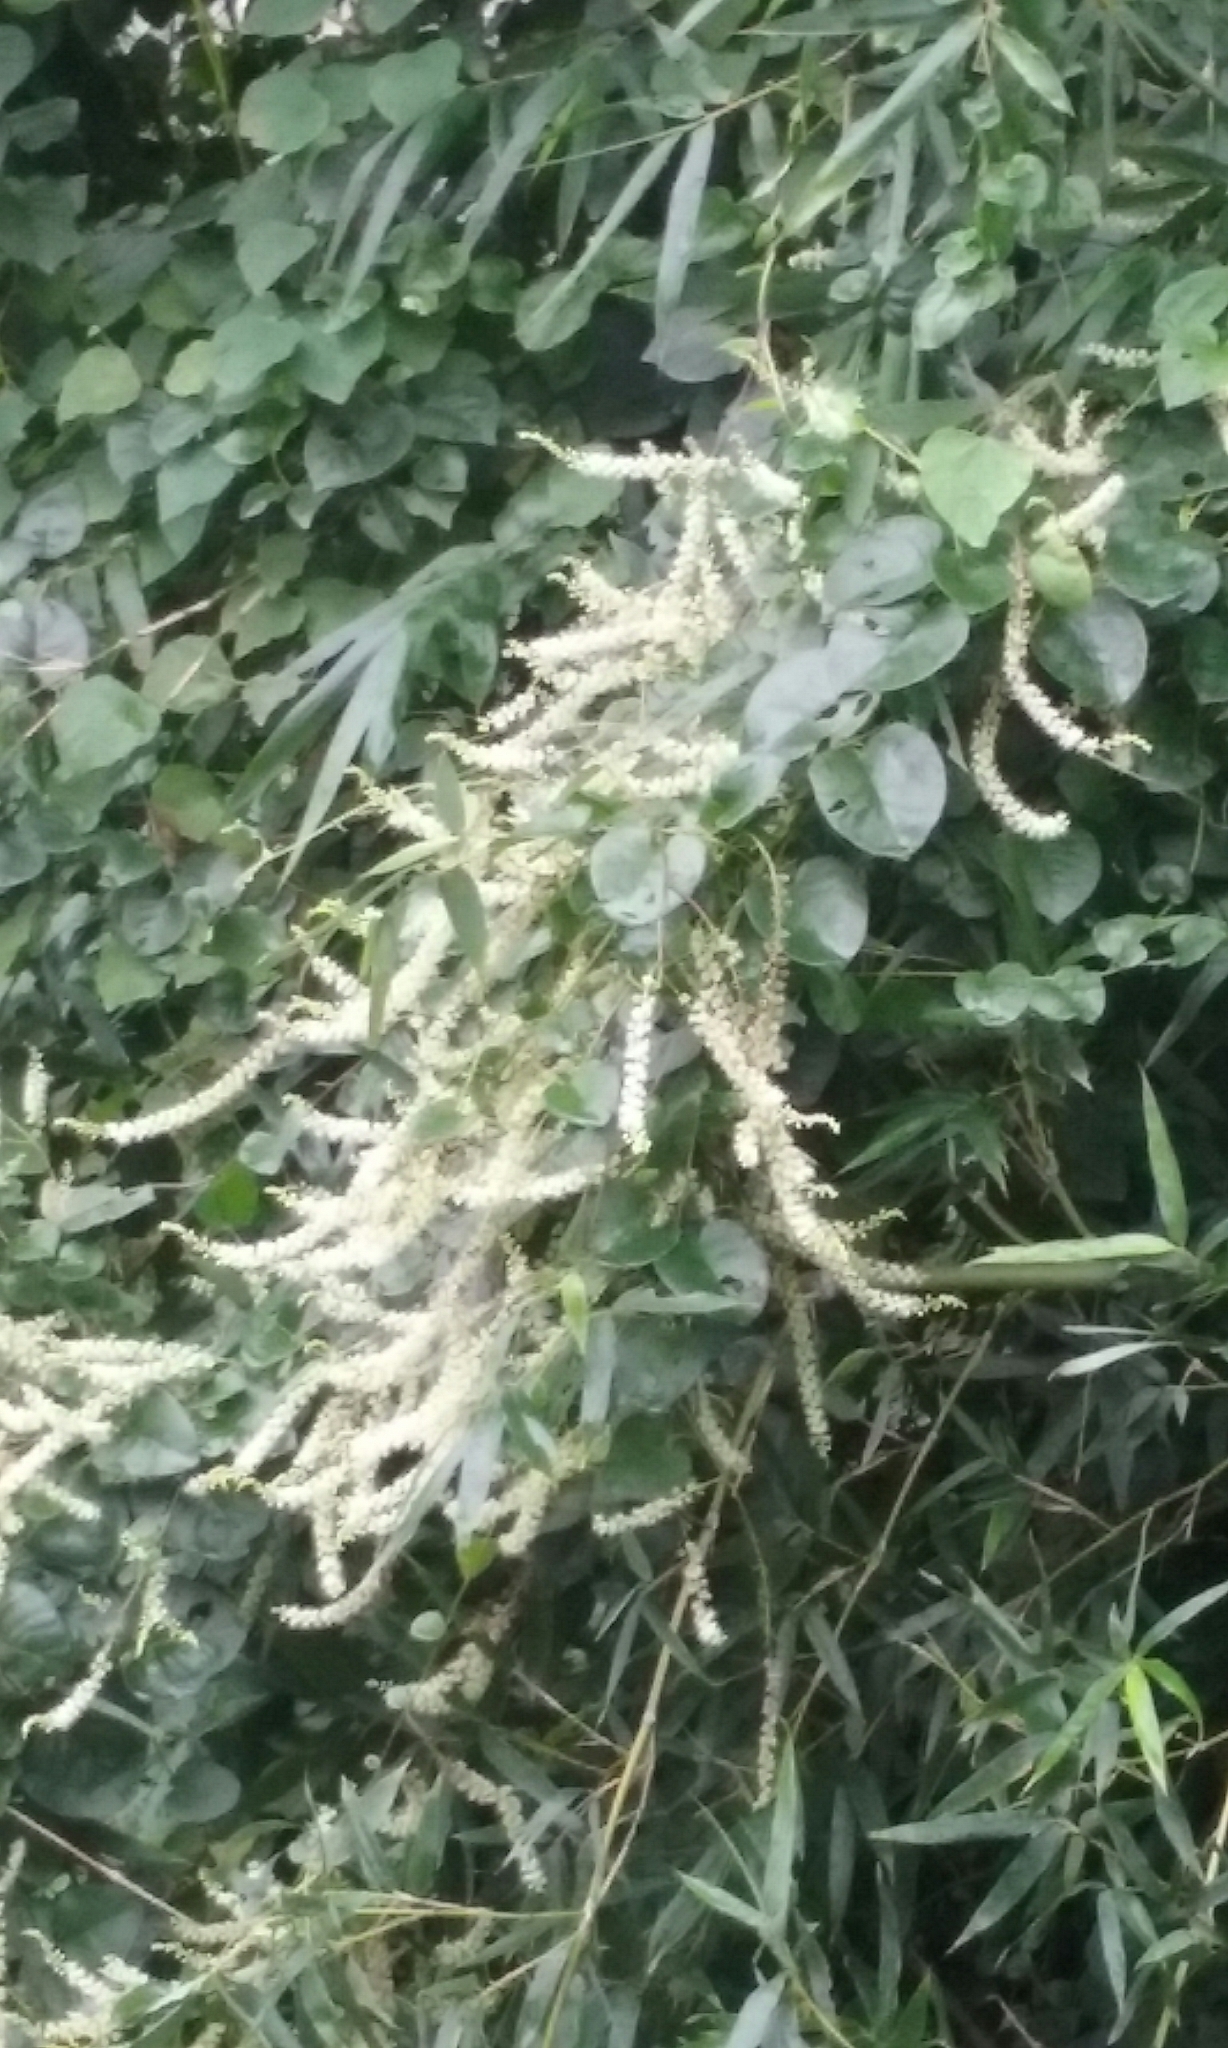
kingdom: Plantae
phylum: Tracheophyta
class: Magnoliopsida
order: Caryophyllales
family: Basellaceae
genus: Anredera
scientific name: Anredera cordifolia
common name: Heartleaf madeiravine
